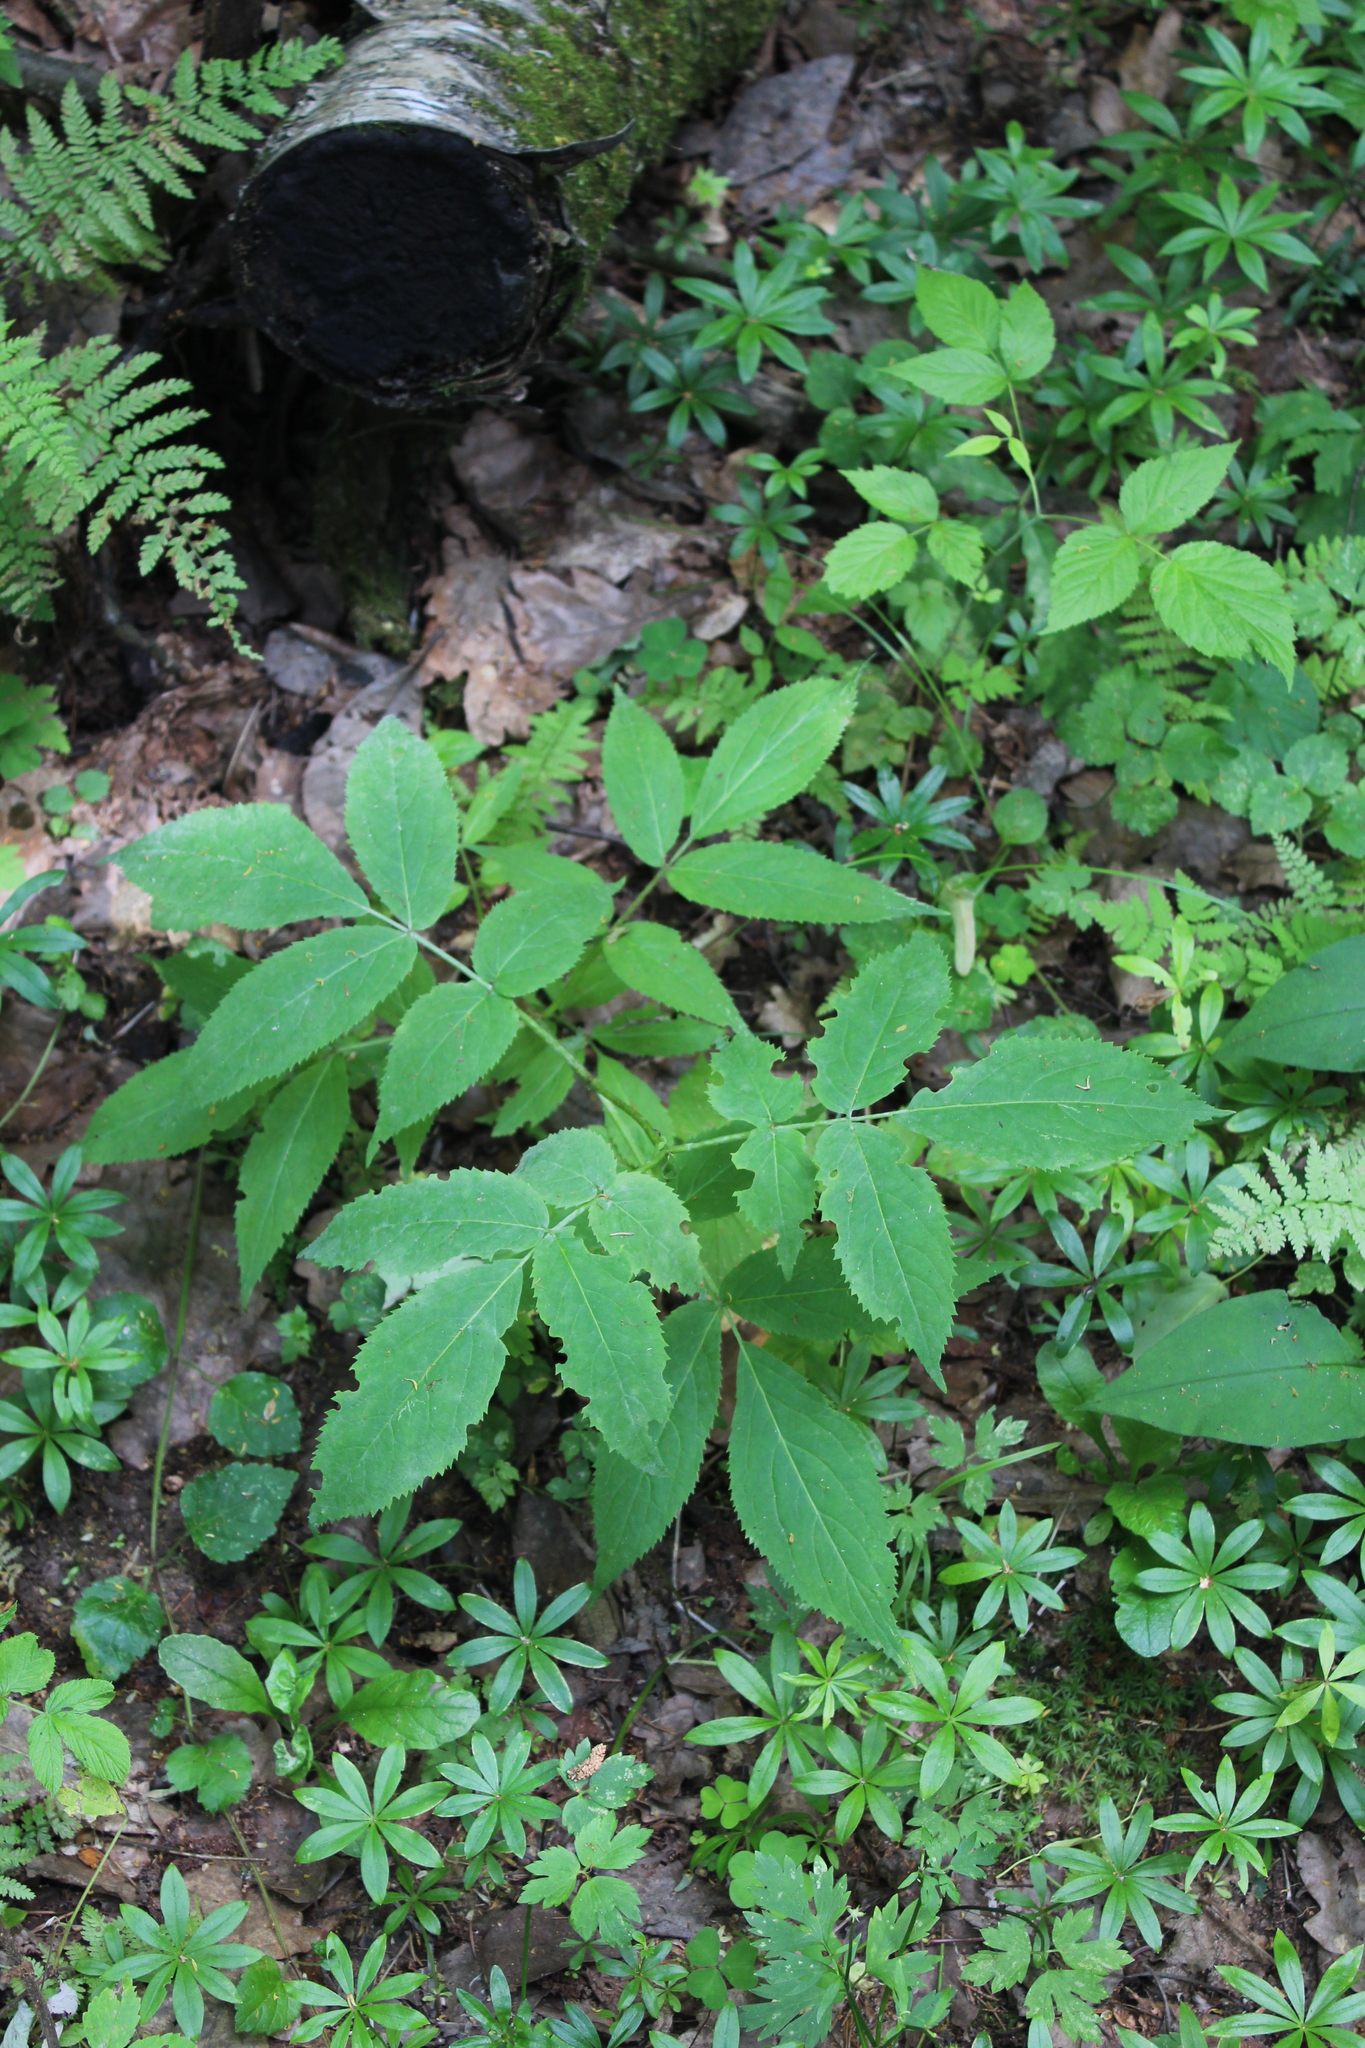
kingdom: Plantae
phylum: Tracheophyta
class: Magnoliopsida
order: Dipsacales
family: Viburnaceae
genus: Sambucus
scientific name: Sambucus racemosa
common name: Red-berried elder
